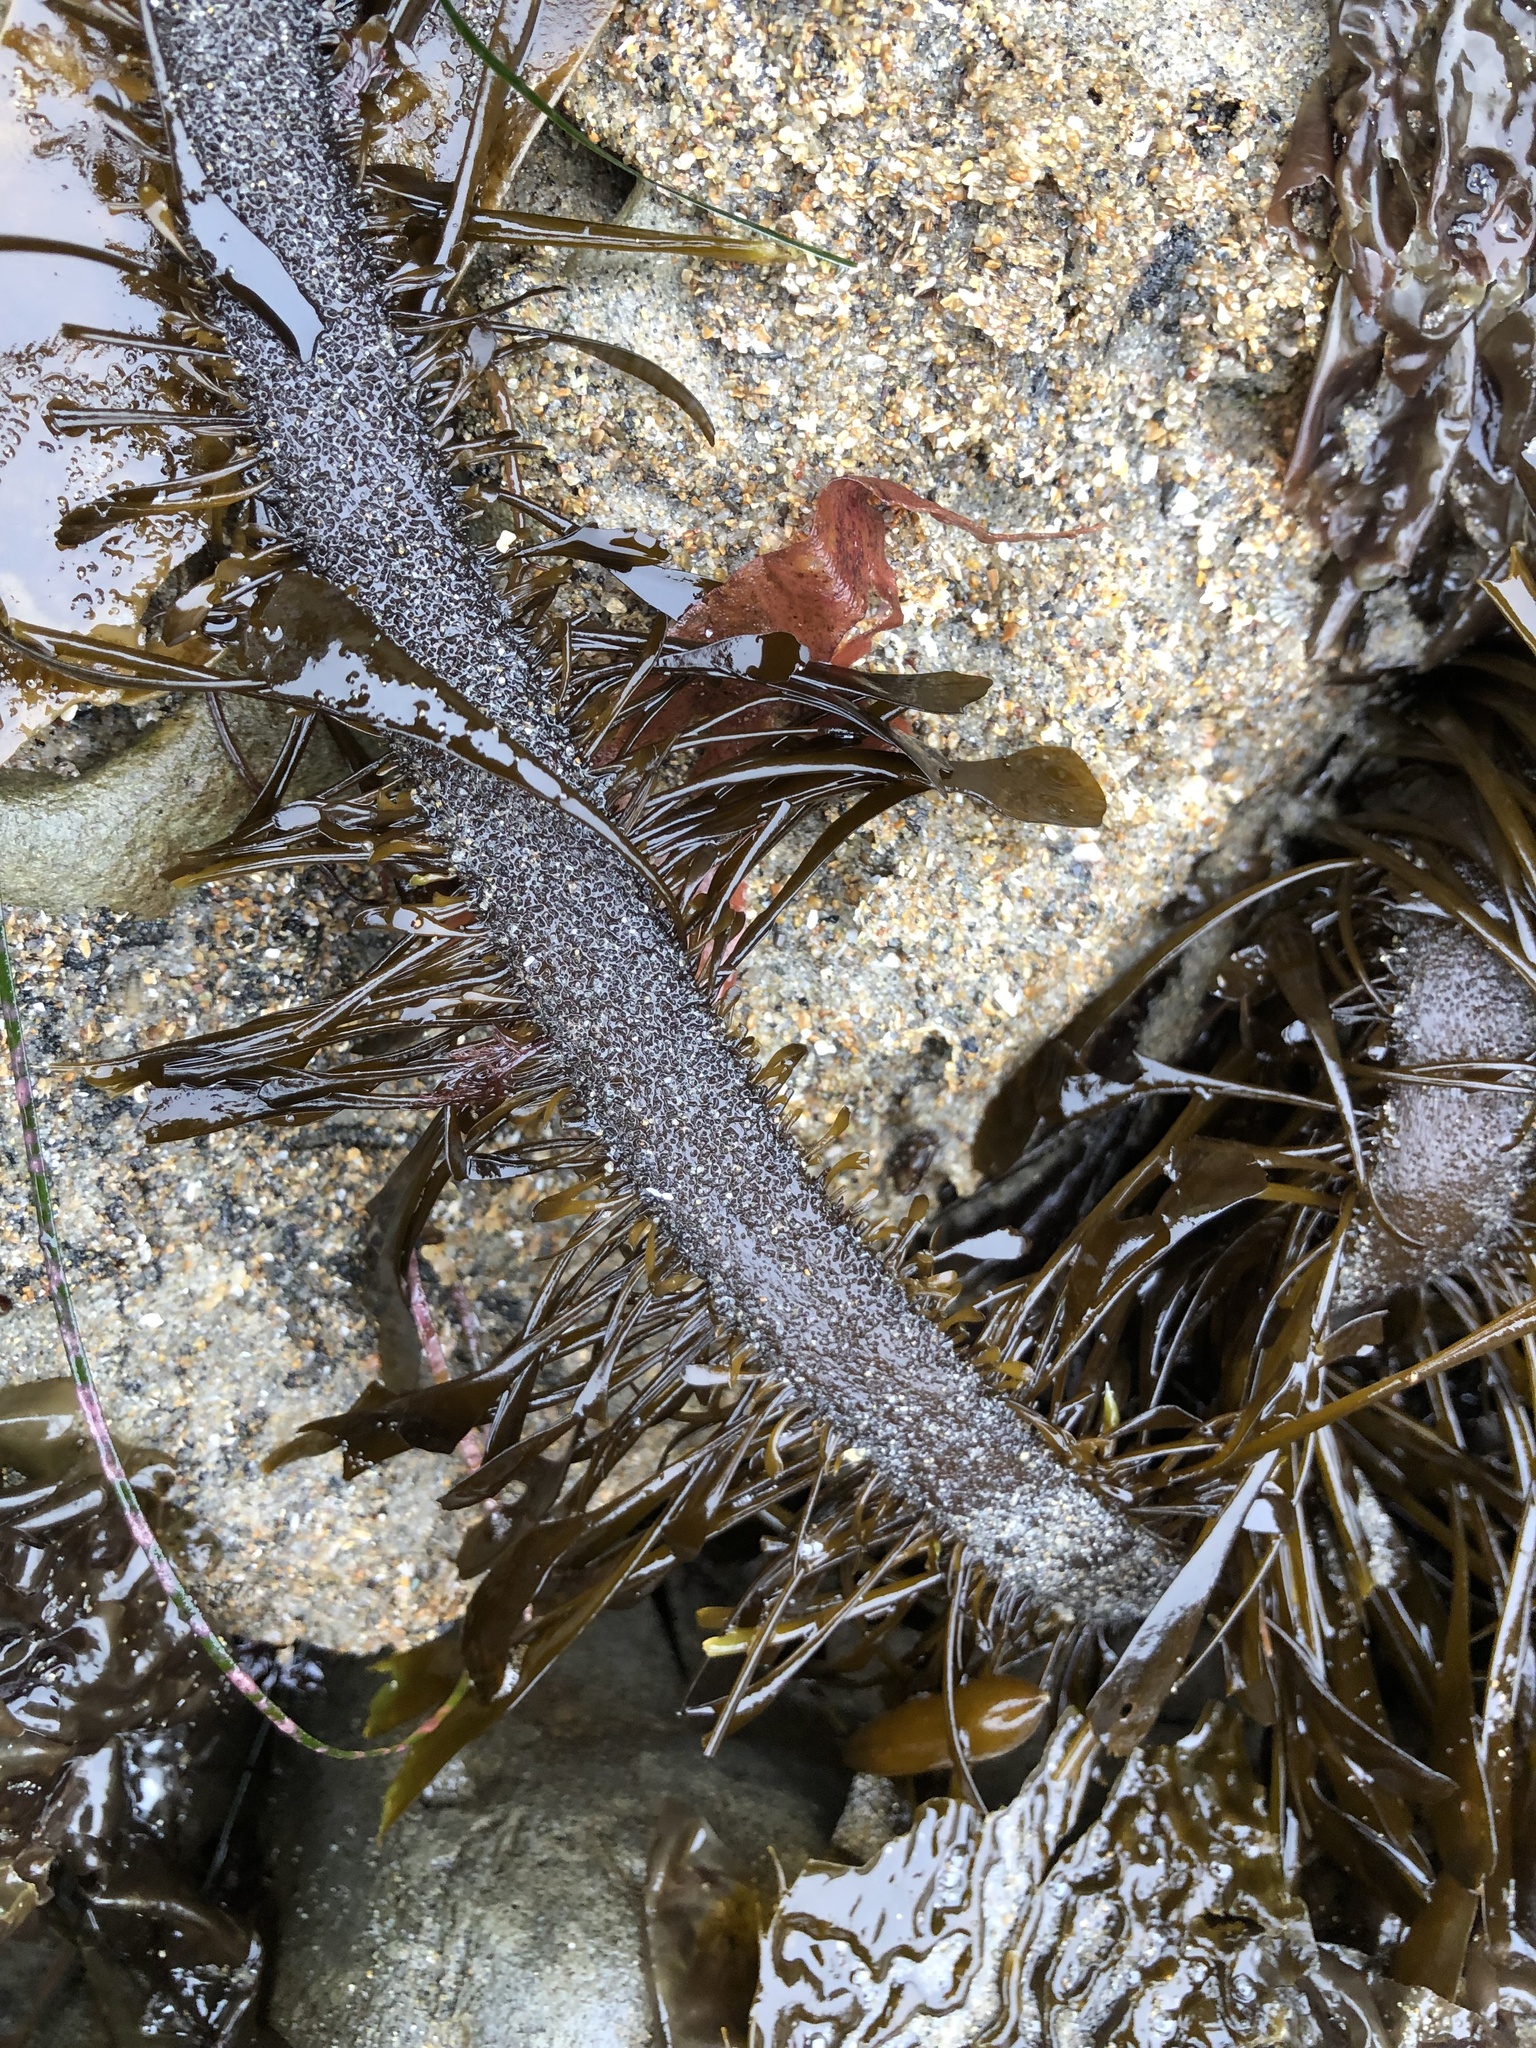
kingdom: Chromista
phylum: Ochrophyta
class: Phaeophyceae
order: Laminariales
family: Lessoniaceae
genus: Egregia
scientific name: Egregia menziesii
